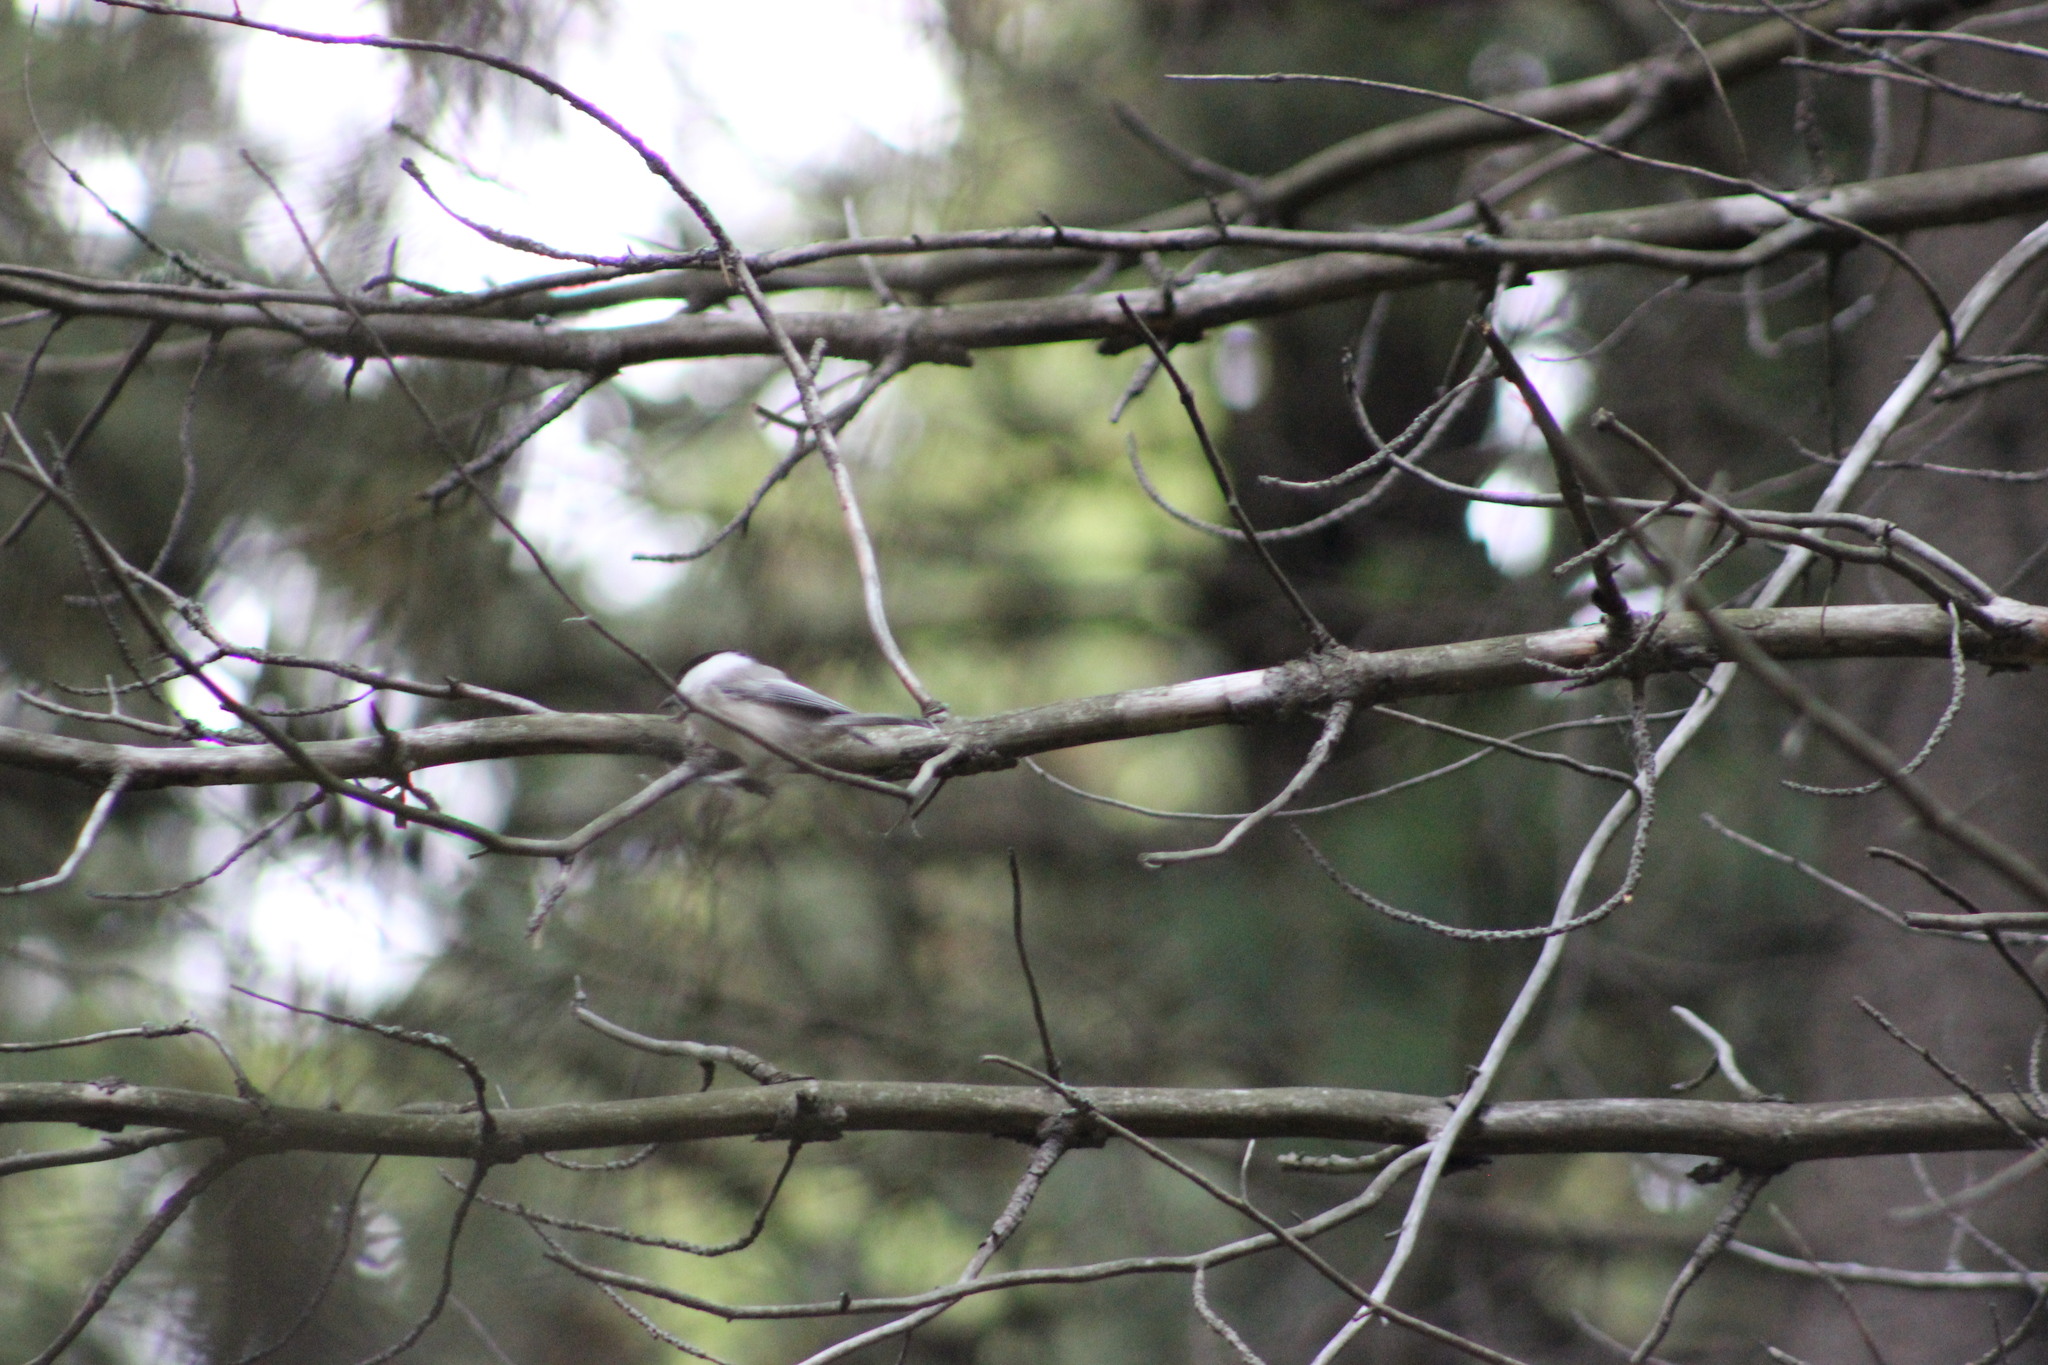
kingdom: Animalia
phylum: Chordata
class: Aves
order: Passeriformes
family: Paridae
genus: Poecile
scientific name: Poecile montanus
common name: Willow tit
